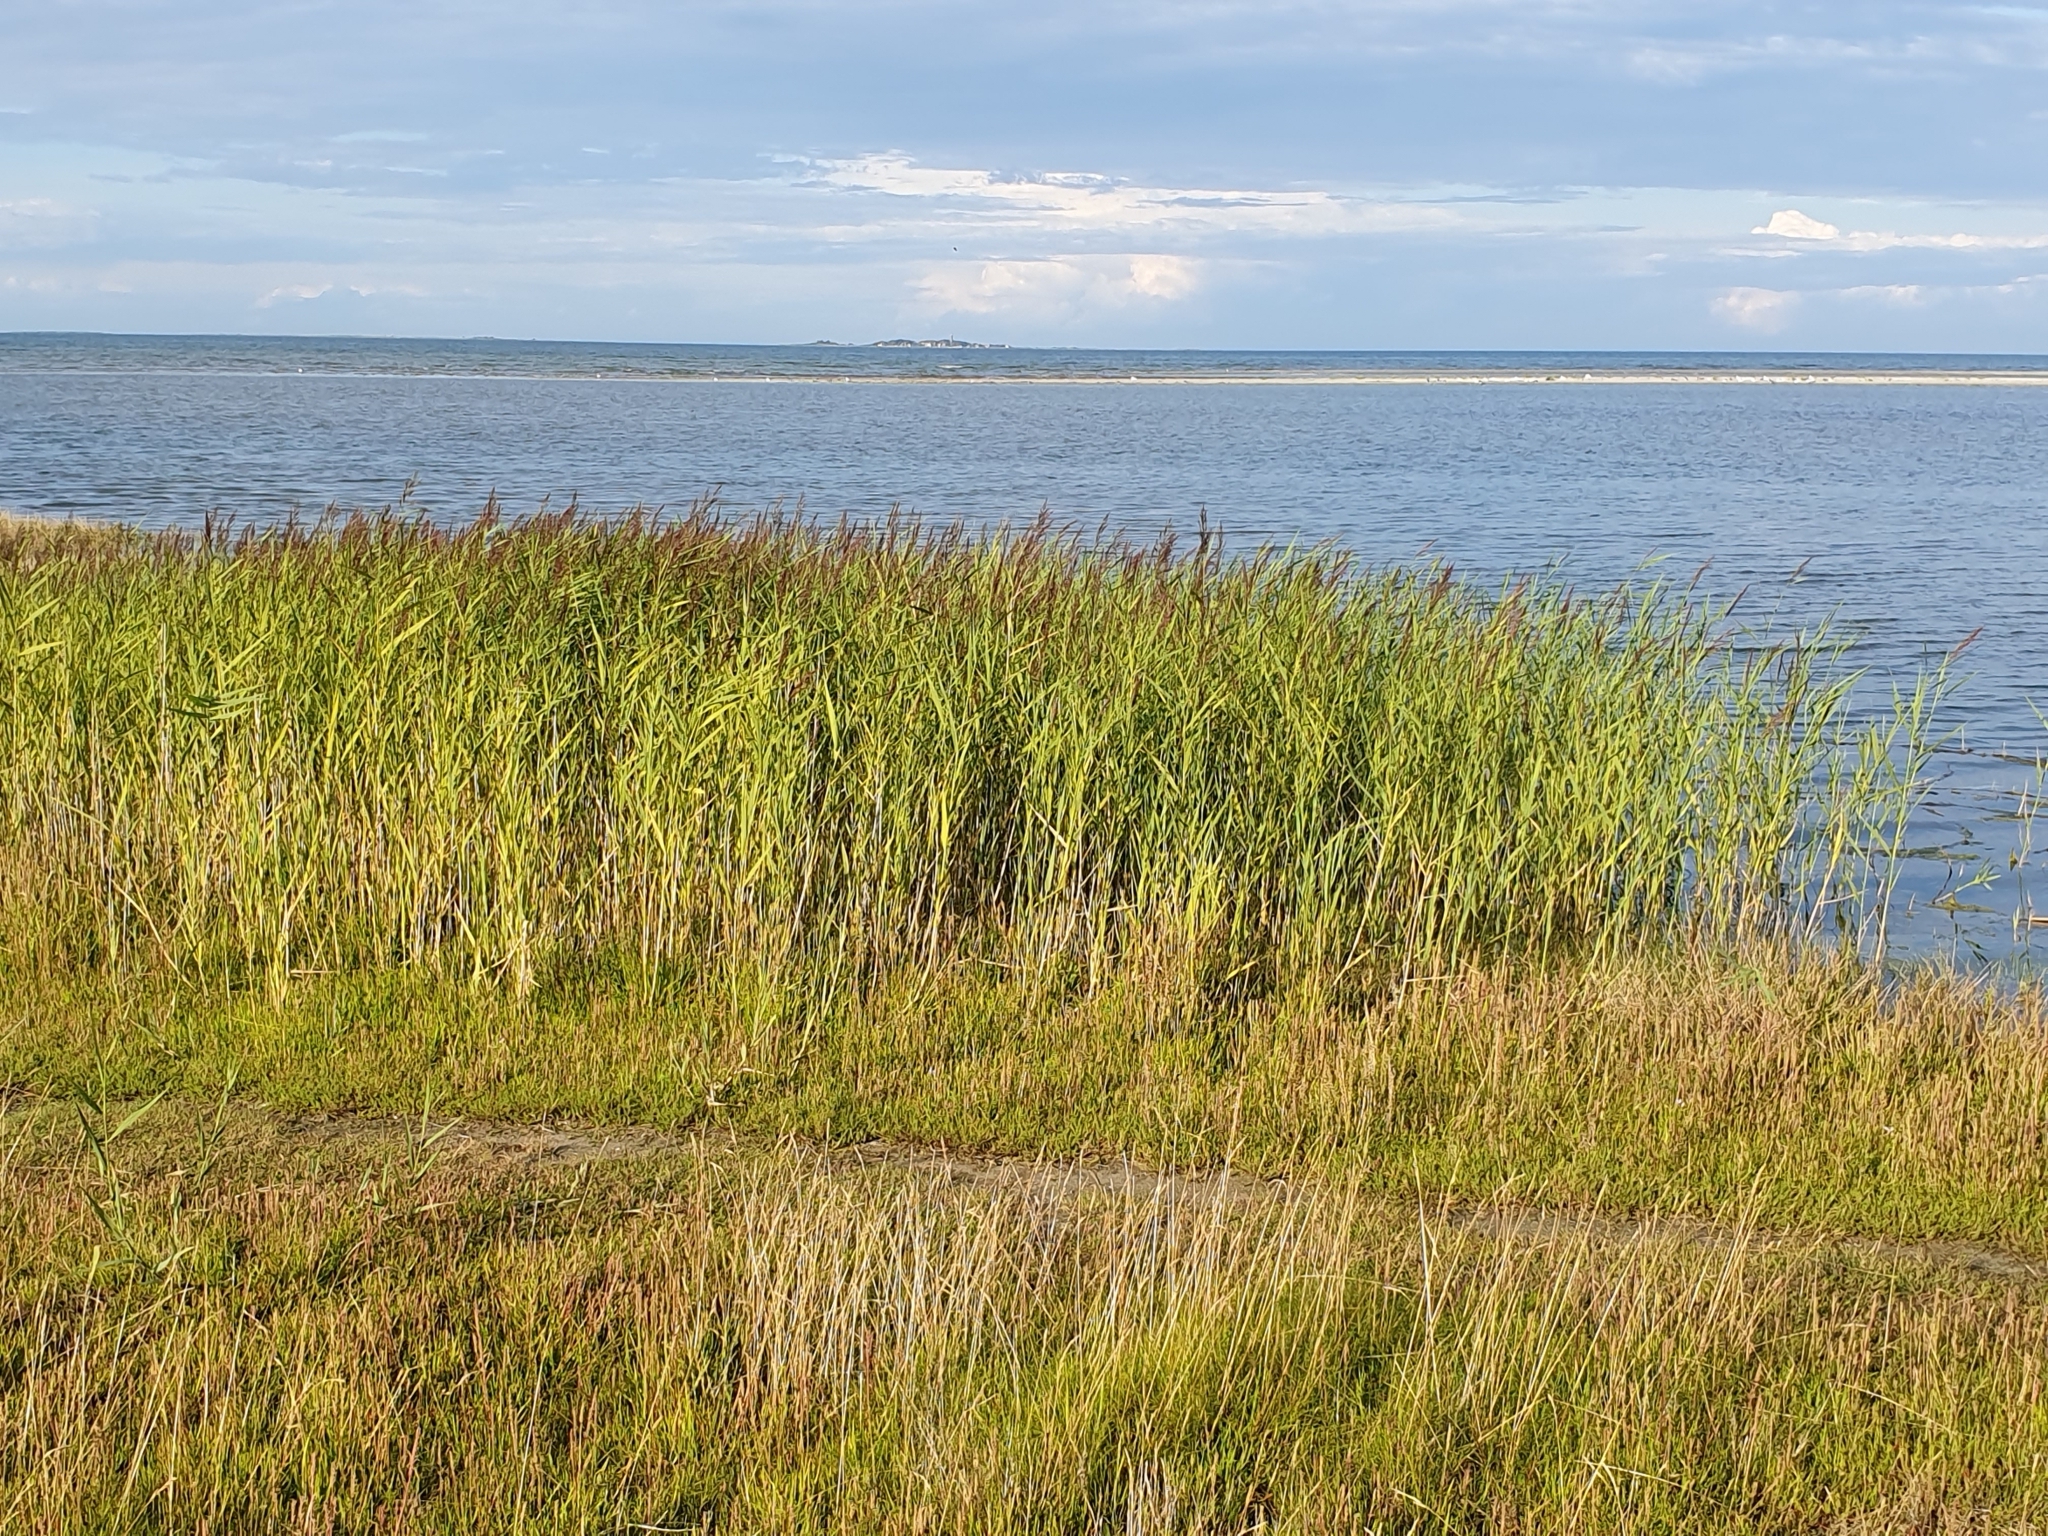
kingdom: Plantae
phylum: Tracheophyta
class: Liliopsida
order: Poales
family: Poaceae
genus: Phragmites
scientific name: Phragmites australis
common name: Common reed
